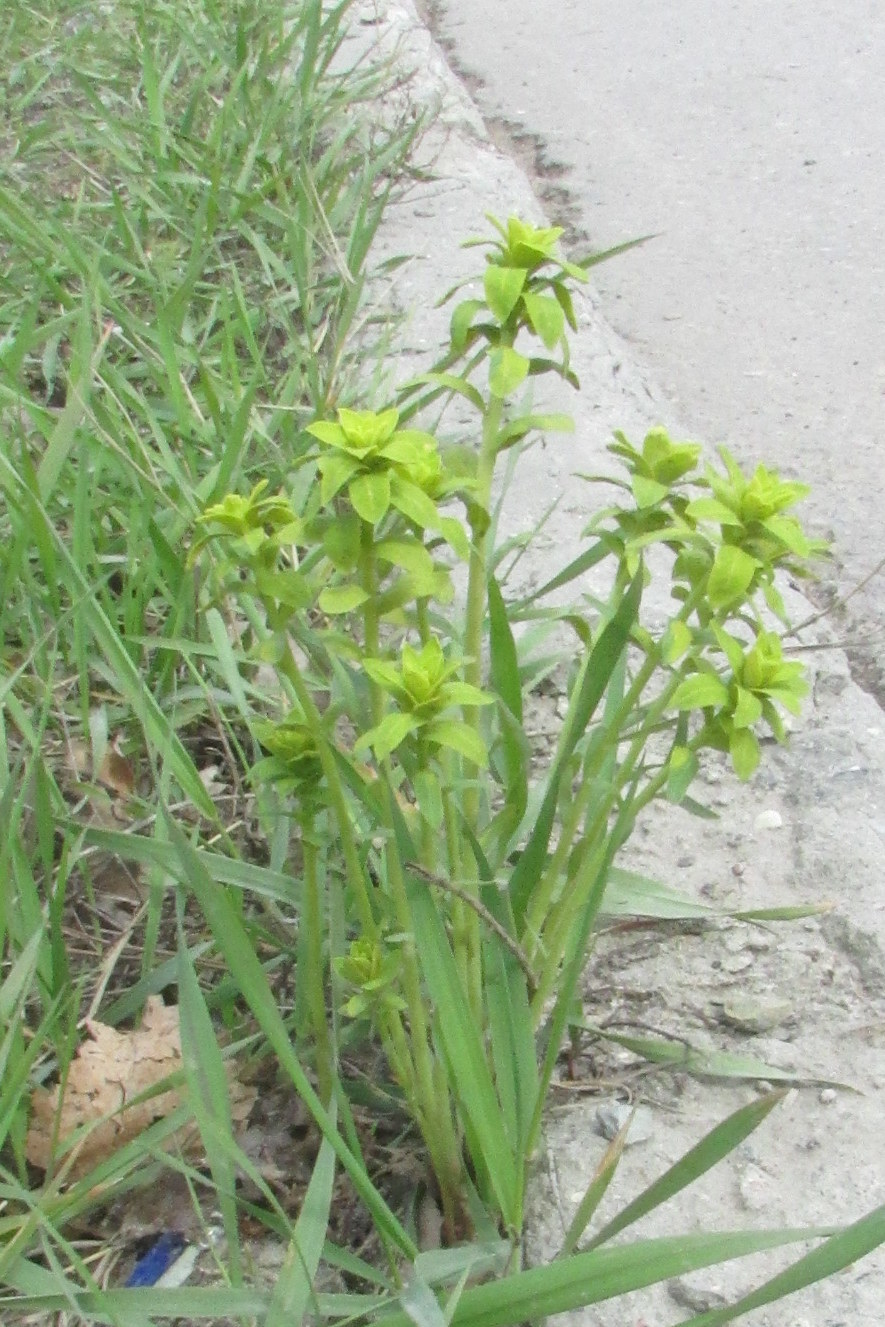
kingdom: Plantae
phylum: Tracheophyta
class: Magnoliopsida
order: Malpighiales
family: Euphorbiaceae
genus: Euphorbia
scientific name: Euphorbia virgata
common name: Leafy spurge
